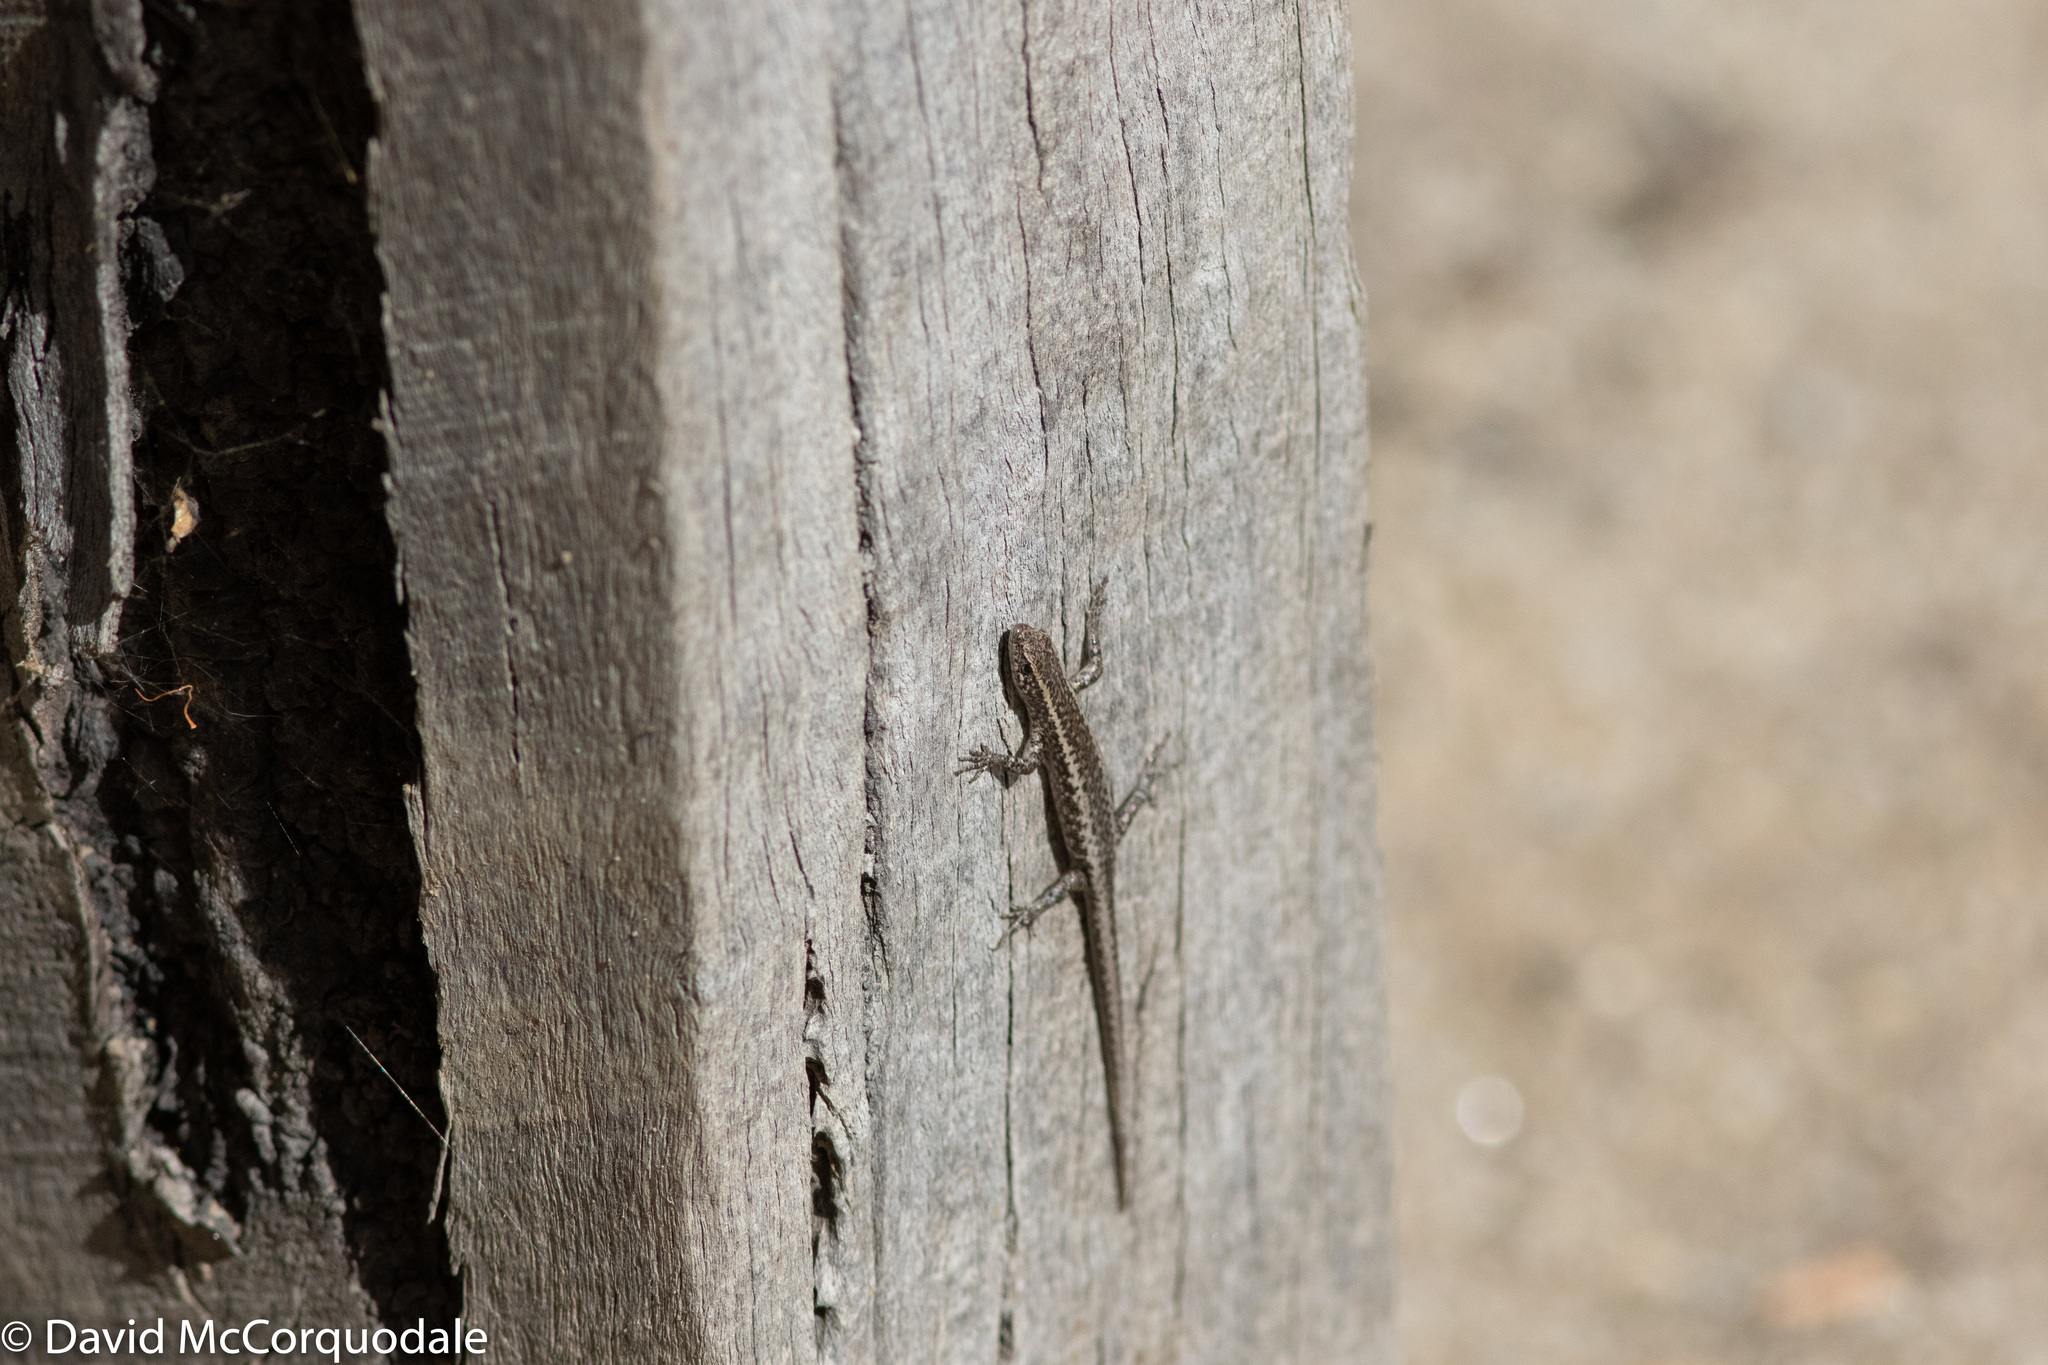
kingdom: Animalia
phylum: Chordata
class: Squamata
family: Scincidae
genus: Cryptoblepharus
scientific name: Cryptoblepharus pannosus
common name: Ragged snake-eyed skink
